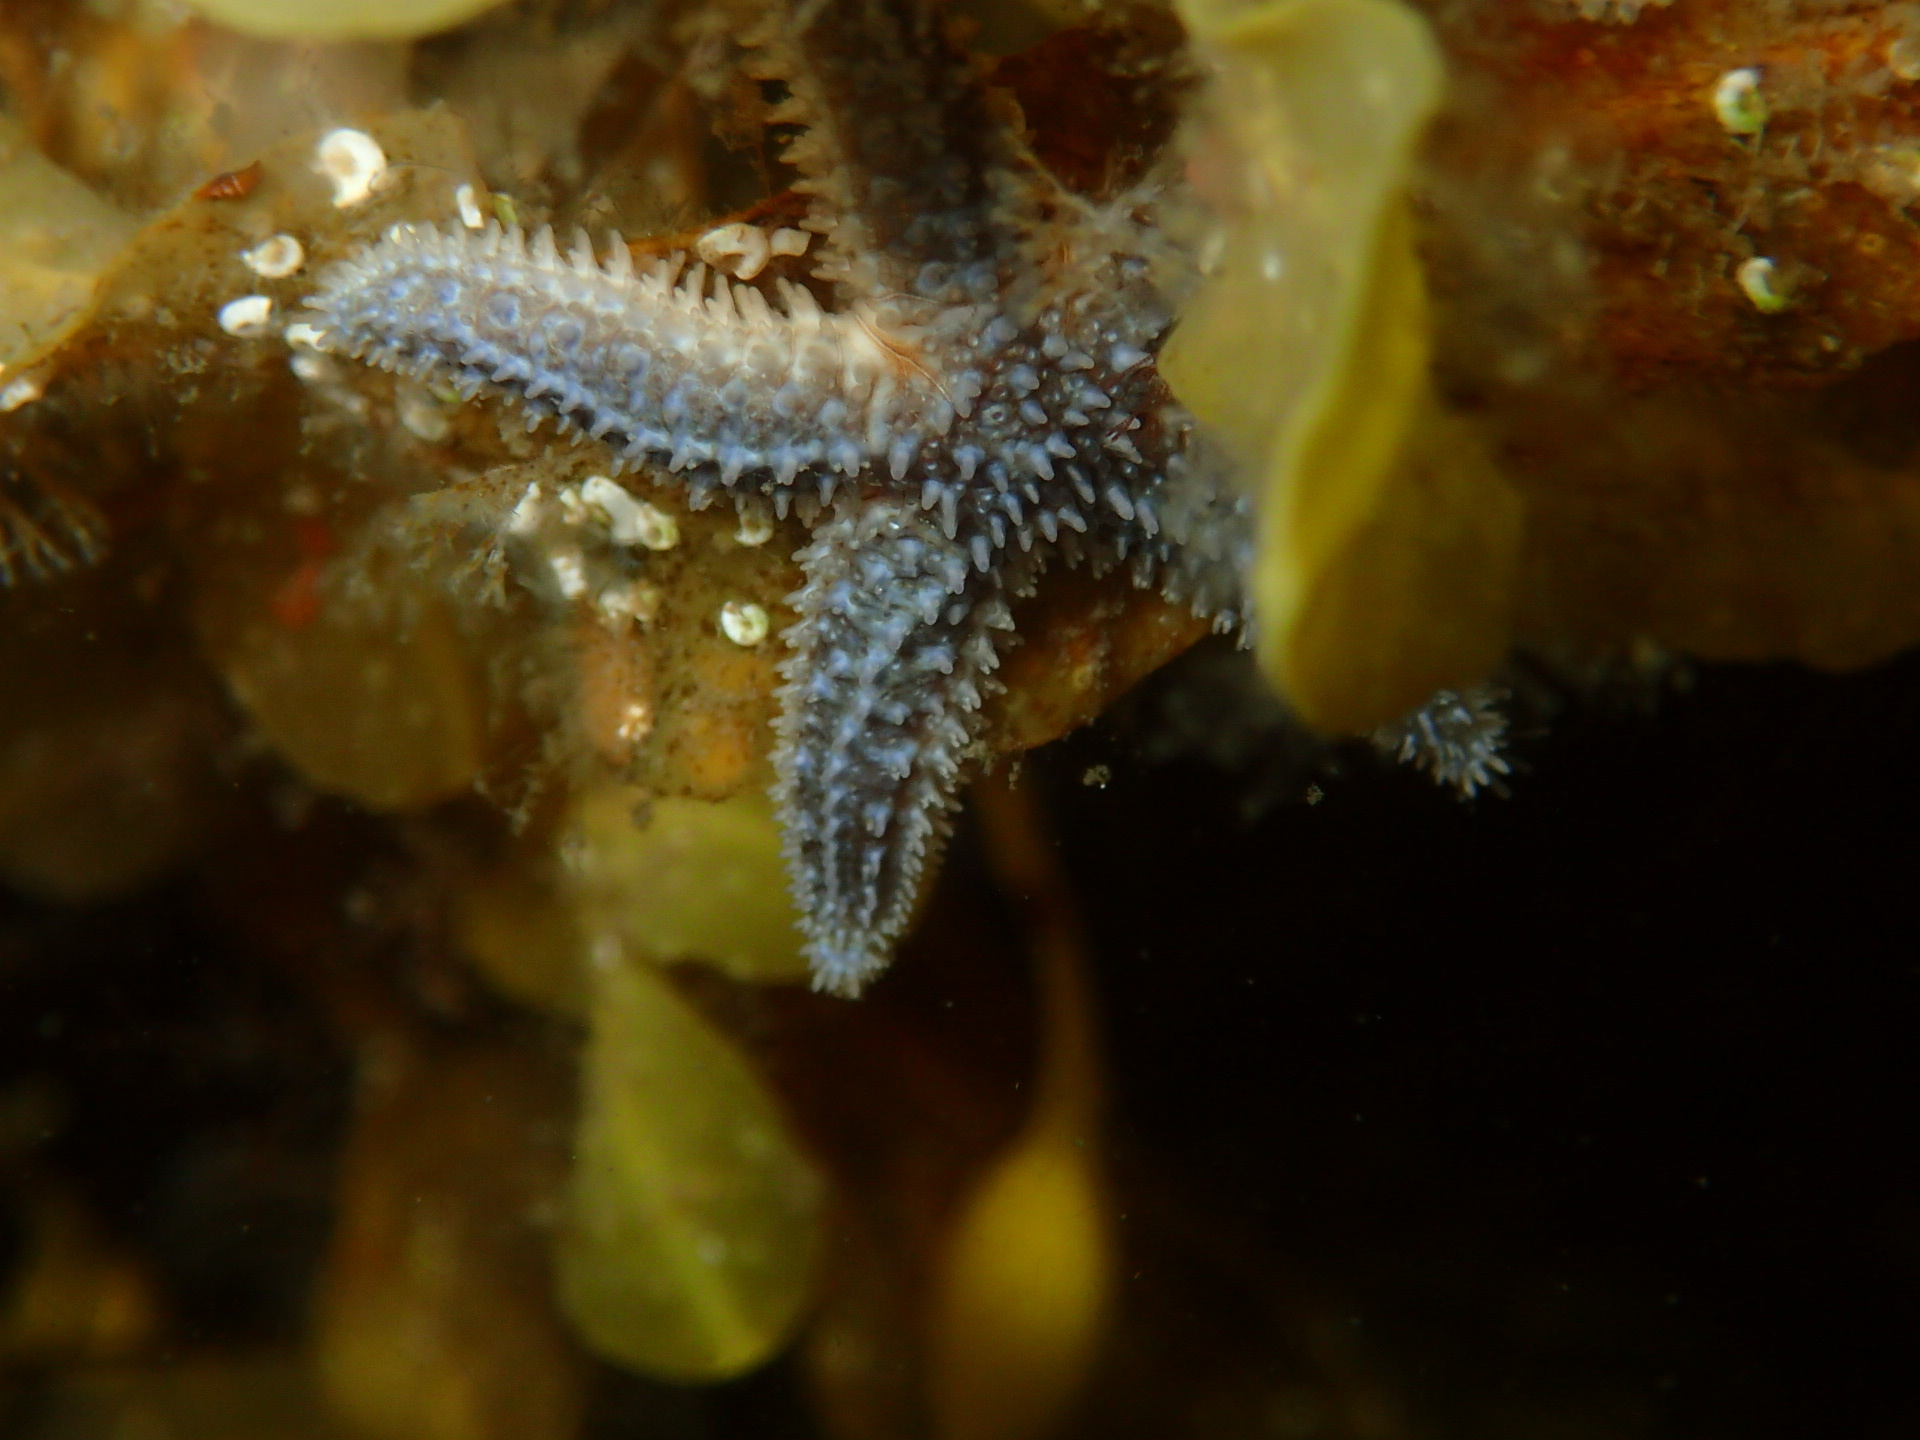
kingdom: Animalia
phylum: Echinodermata
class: Asteroidea
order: Forcipulatida
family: Asteriidae
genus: Asterias
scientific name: Asterias forbesi
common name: Forbes's sea star
